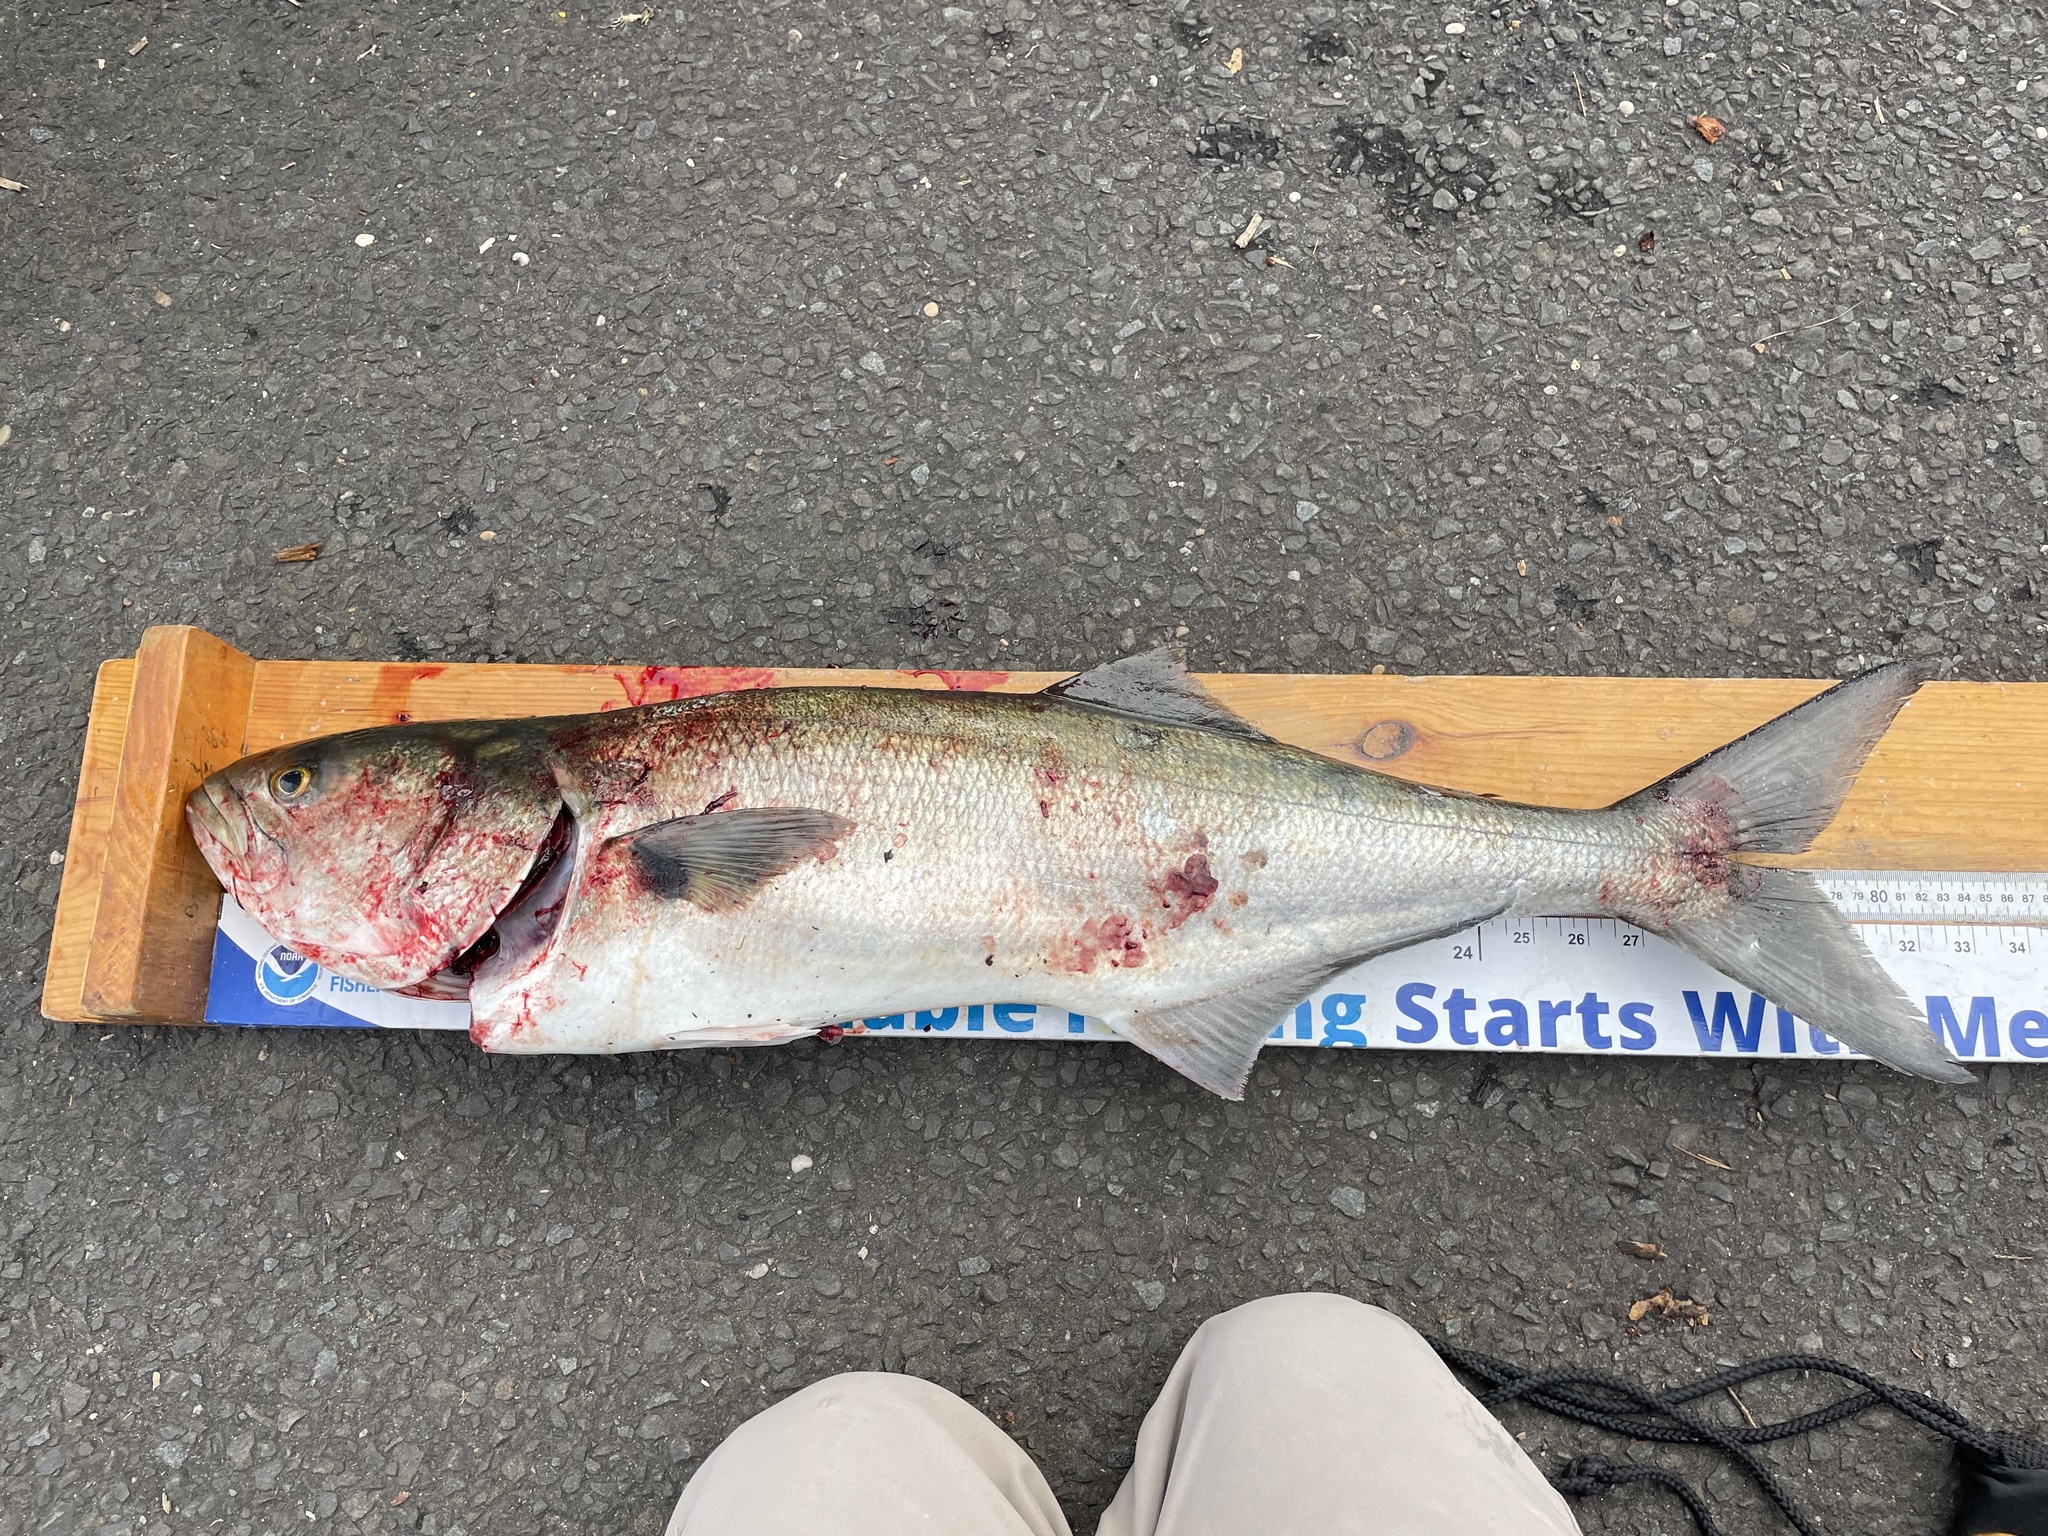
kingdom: Animalia
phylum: Chordata
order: Perciformes
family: Pomatomidae
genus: Pomatomus
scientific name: Pomatomus saltatrix
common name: Bluefish
